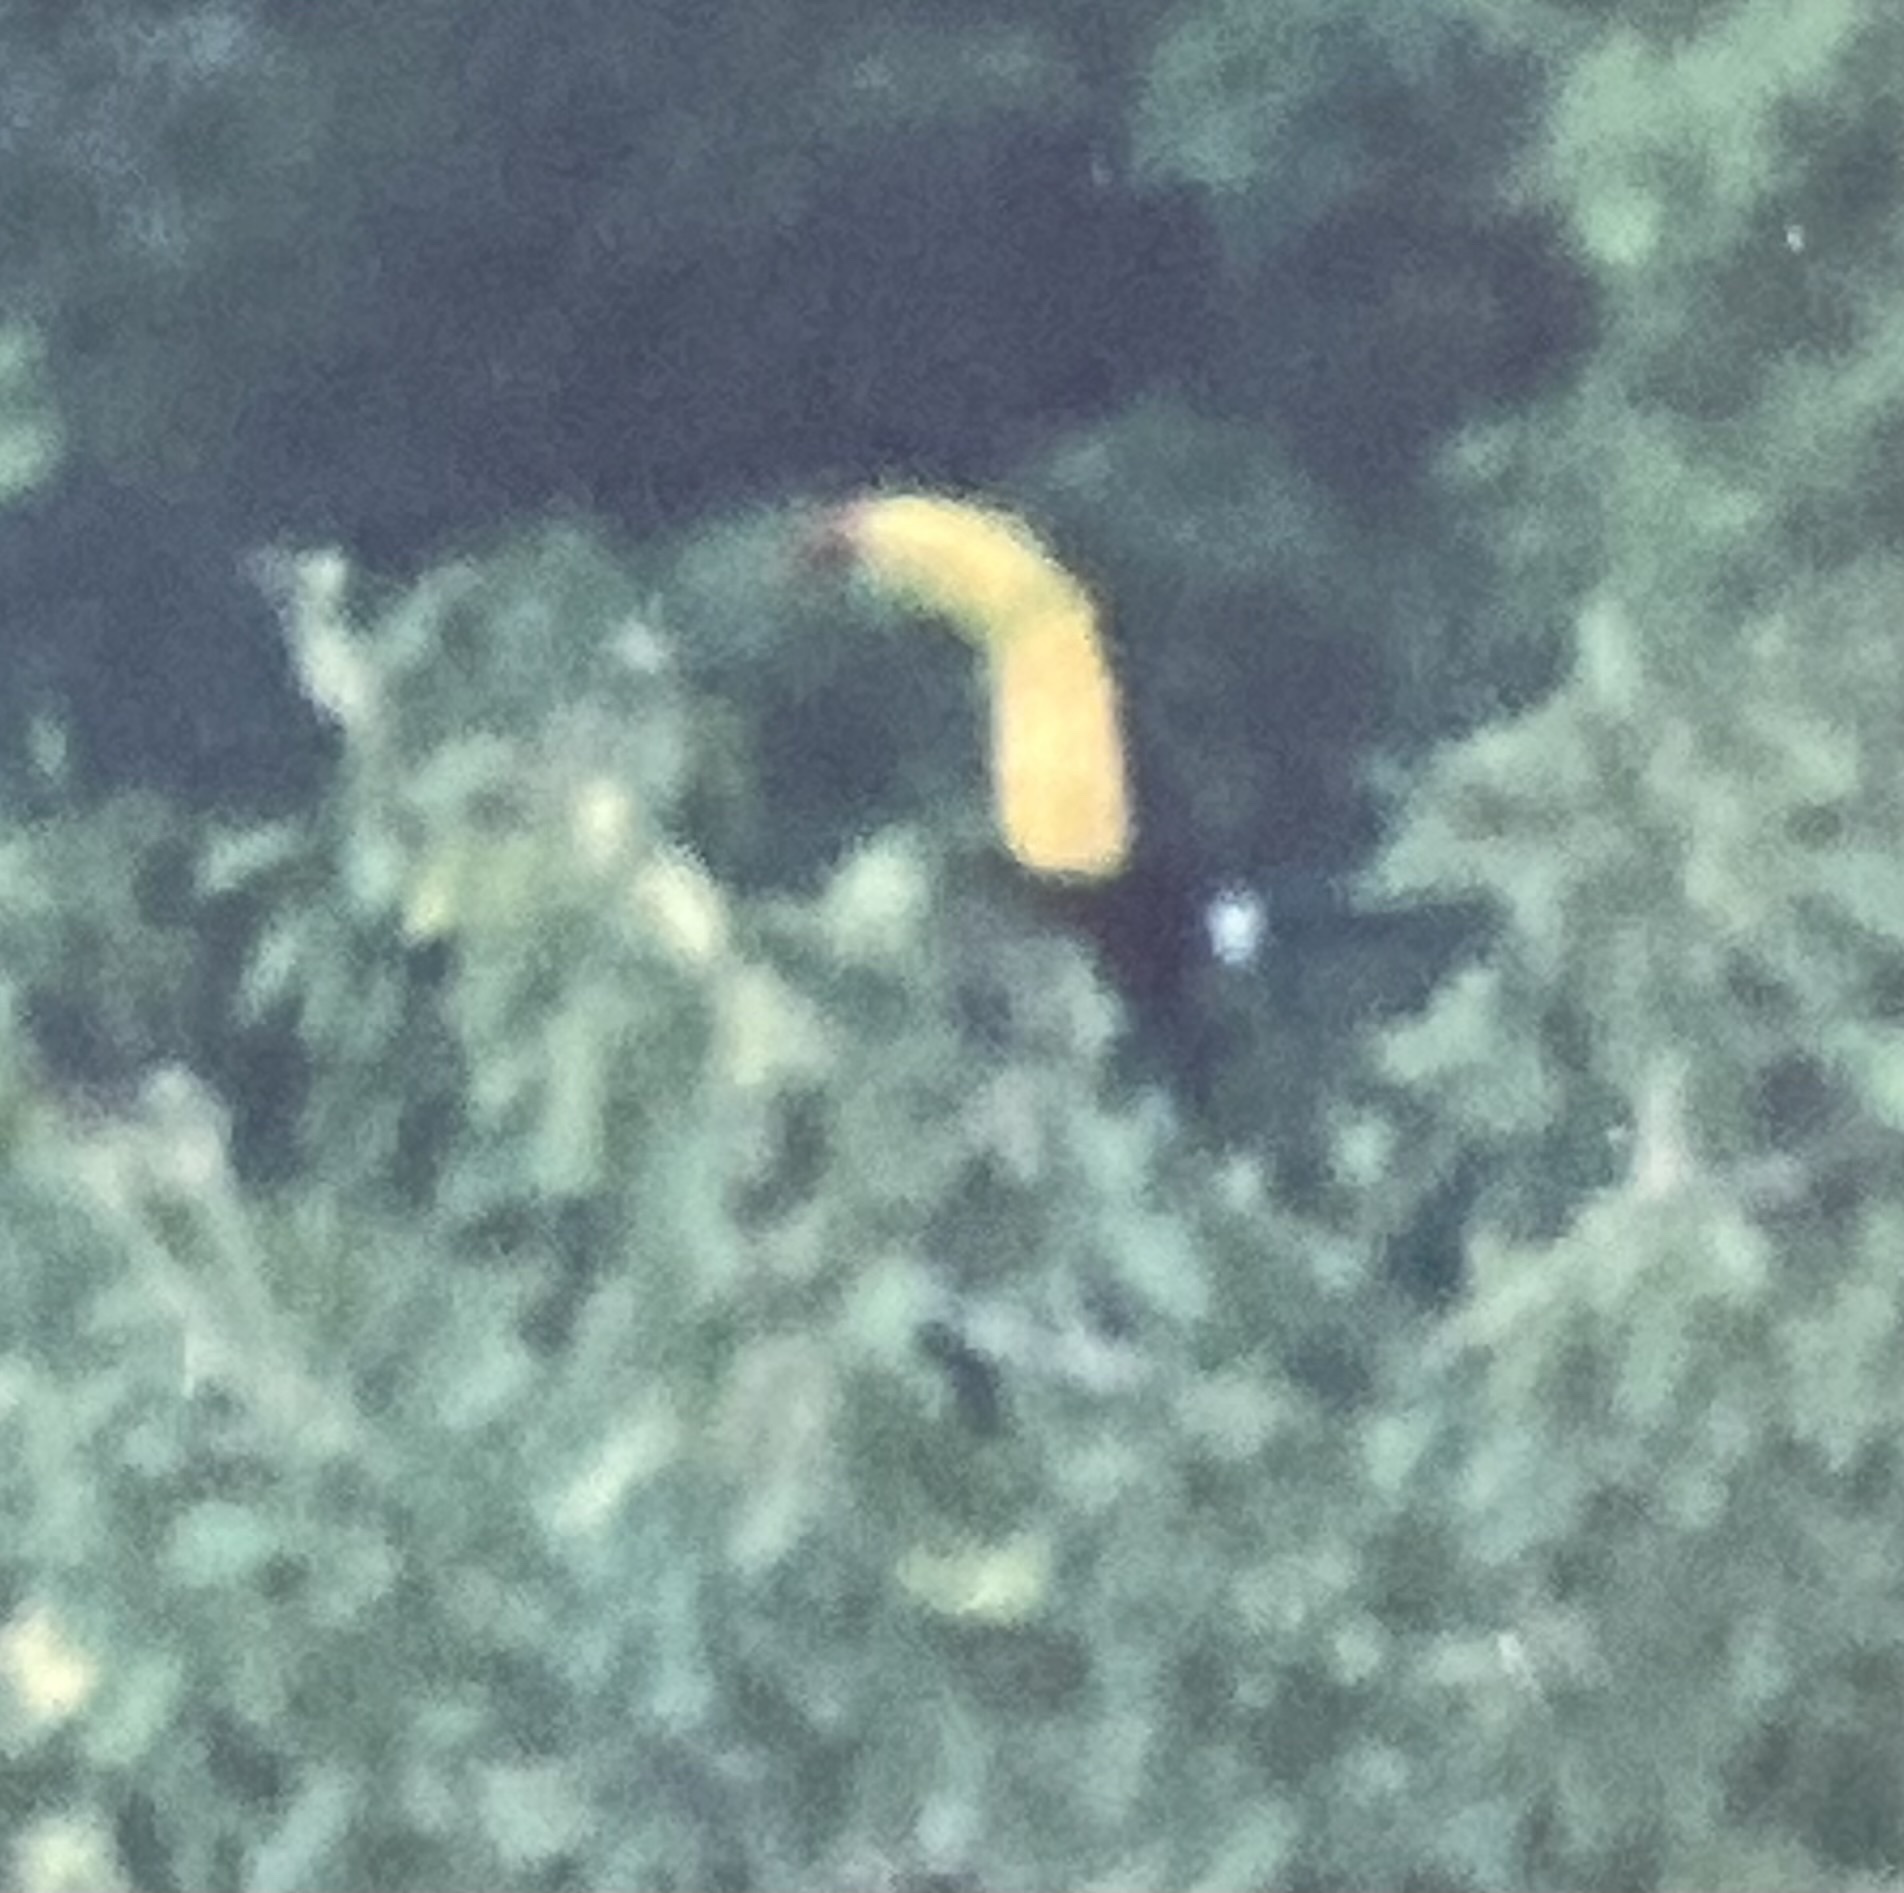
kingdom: Animalia
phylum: Chordata
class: Aves
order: Piciformes
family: Ramphastidae
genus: Ramphastos
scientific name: Ramphastos sulfuratus
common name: Keel-billed toucan
